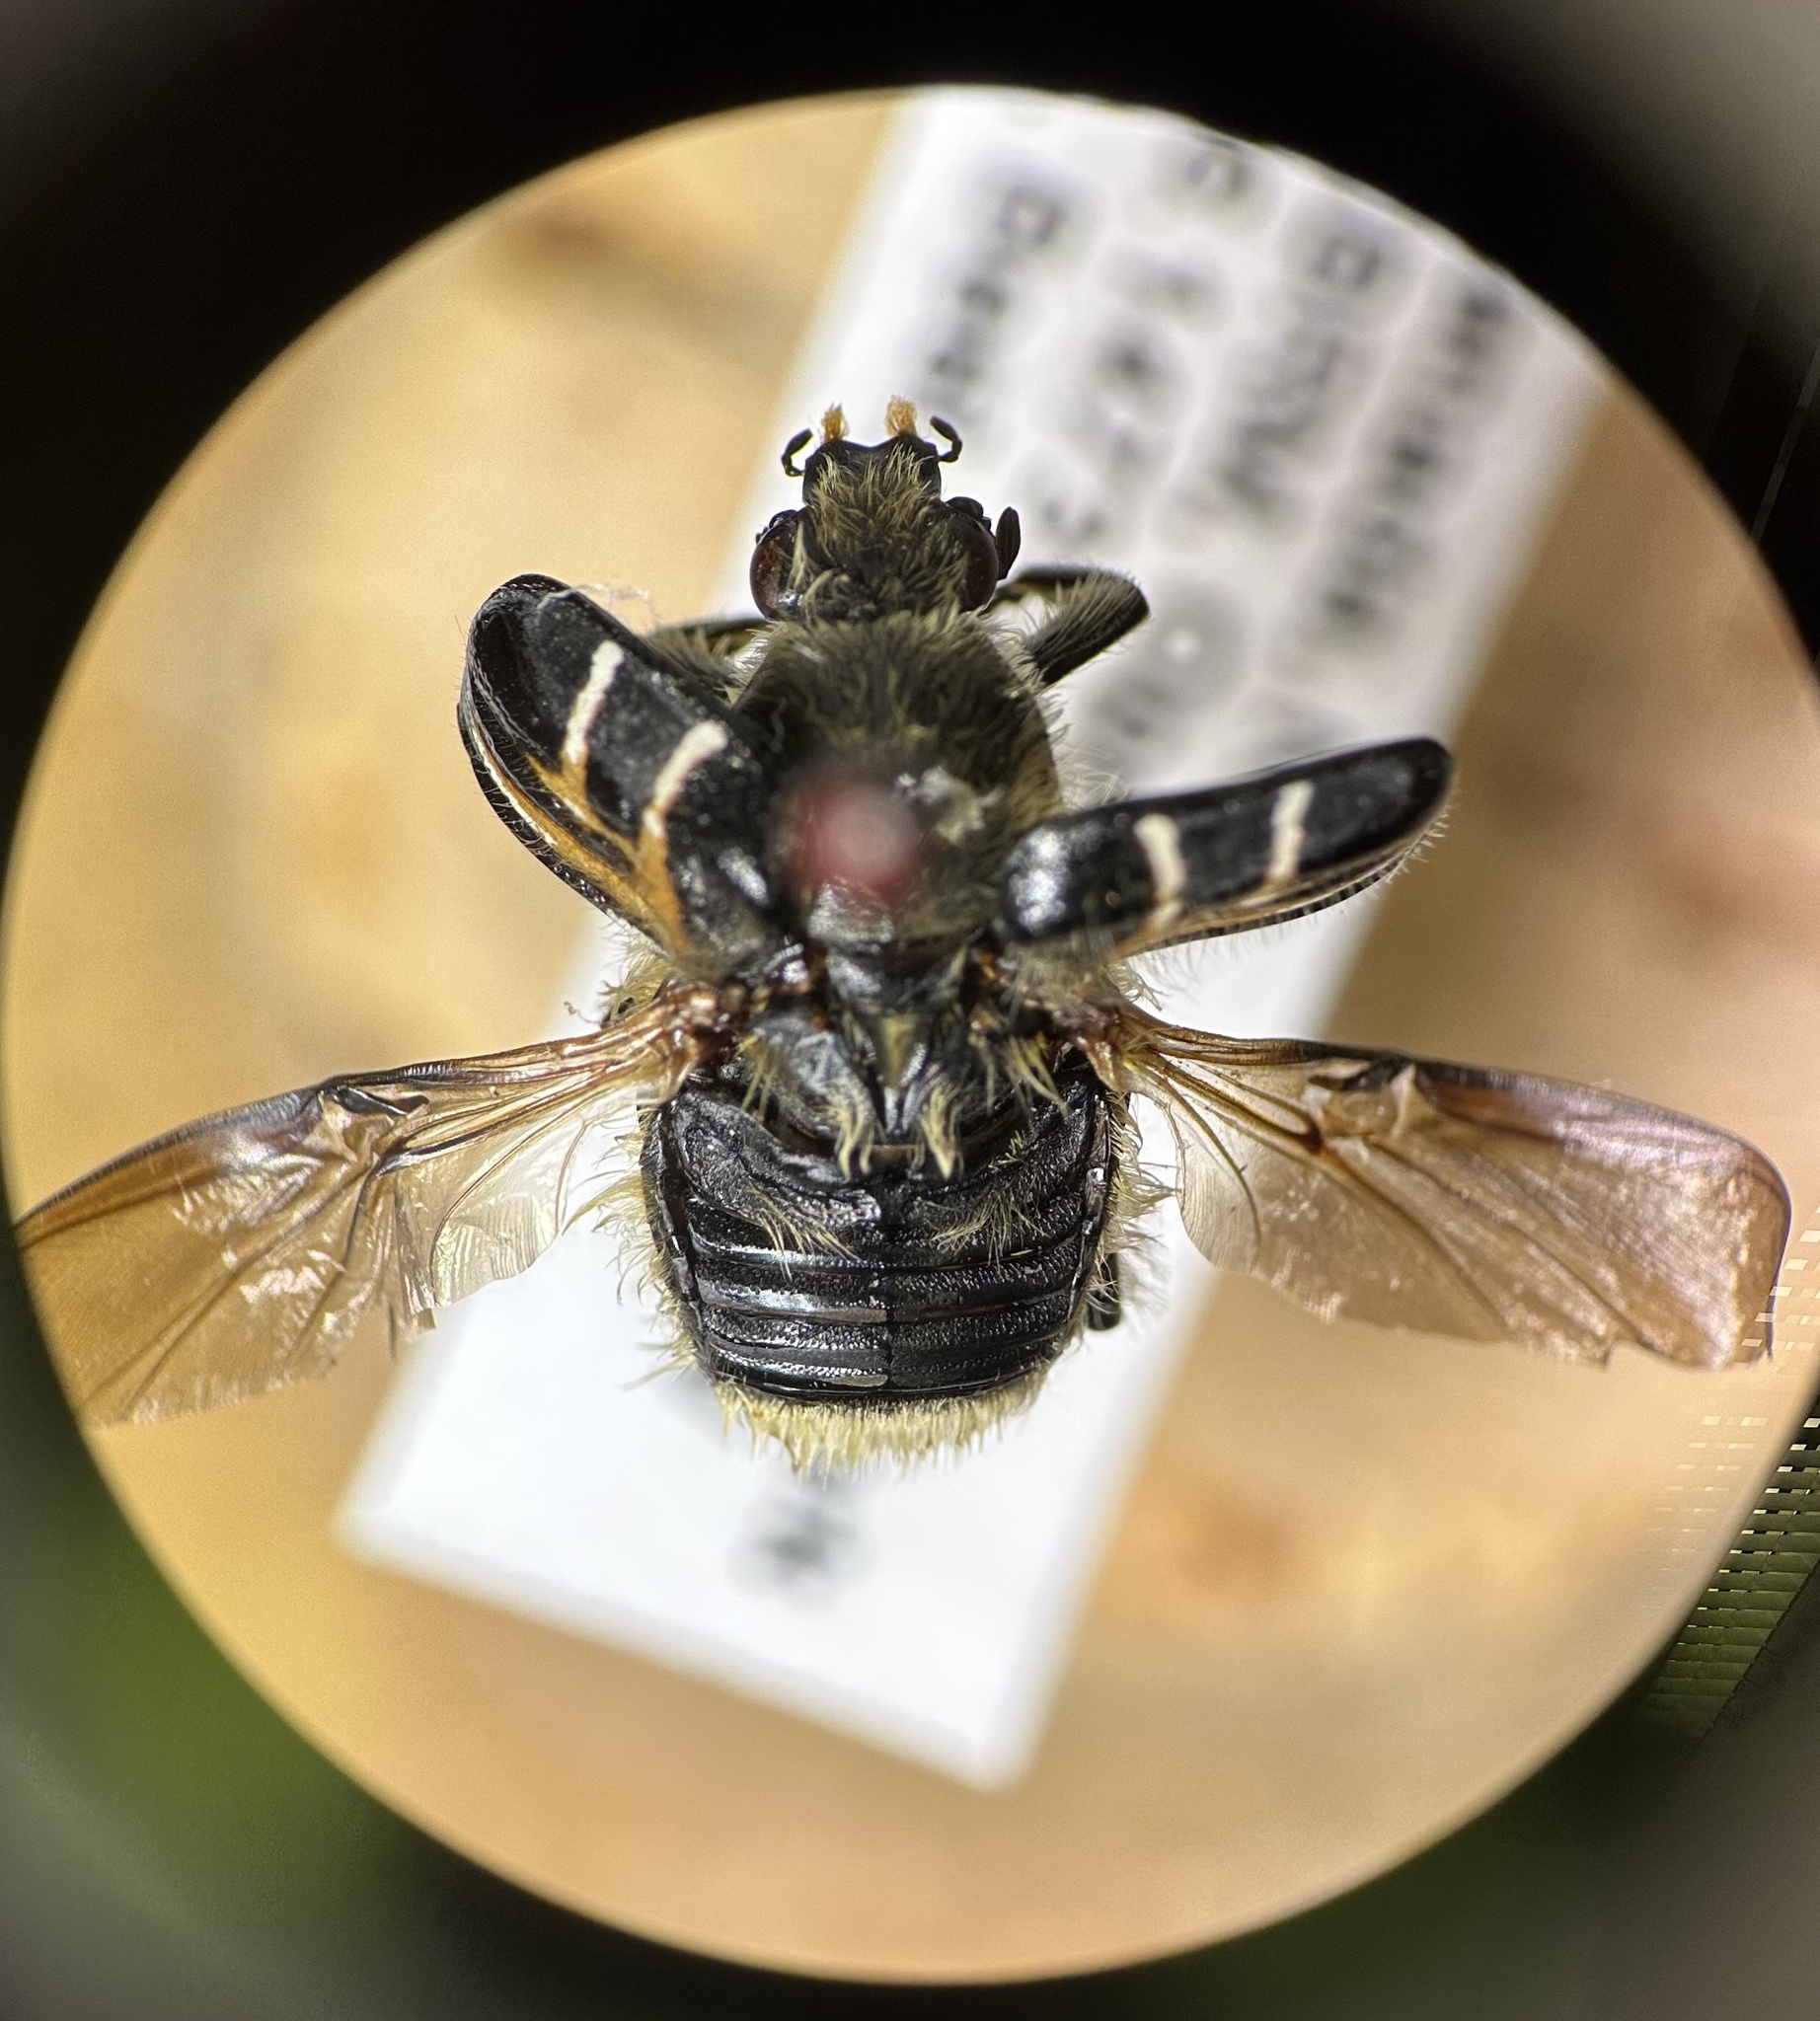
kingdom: Animalia
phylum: Arthropoda
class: Insecta
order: Coleoptera
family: Scarabaeidae
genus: Trichiotinus
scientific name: Trichiotinus assimilis
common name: Bee-mimic beetle
